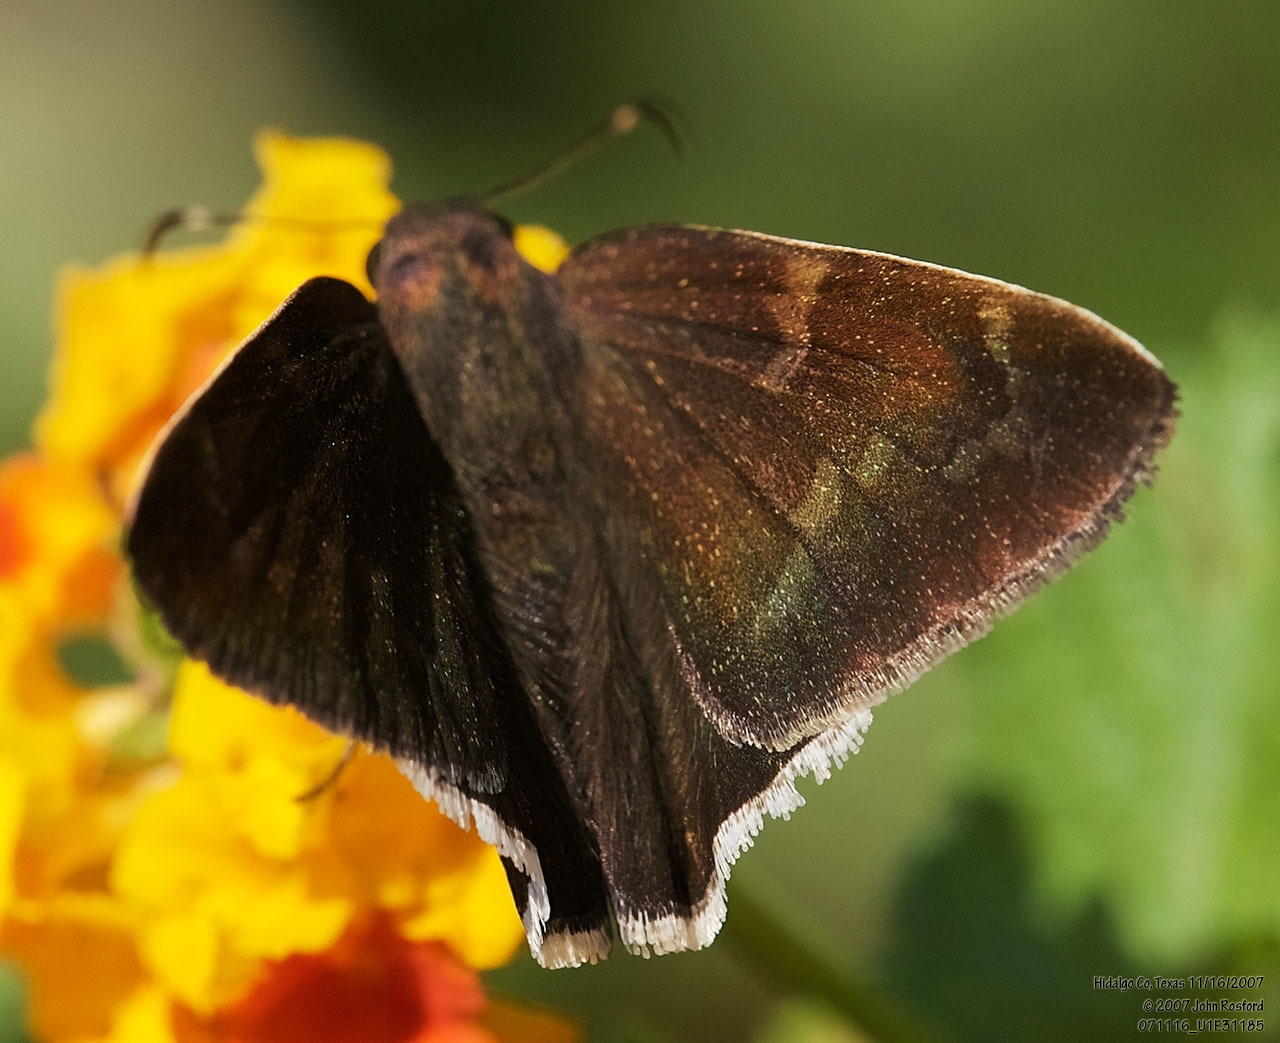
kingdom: Animalia
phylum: Arthropoda
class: Insecta
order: Lepidoptera
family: Hesperiidae
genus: Achalarus
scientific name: Achalarus Murgaria albociliatus
